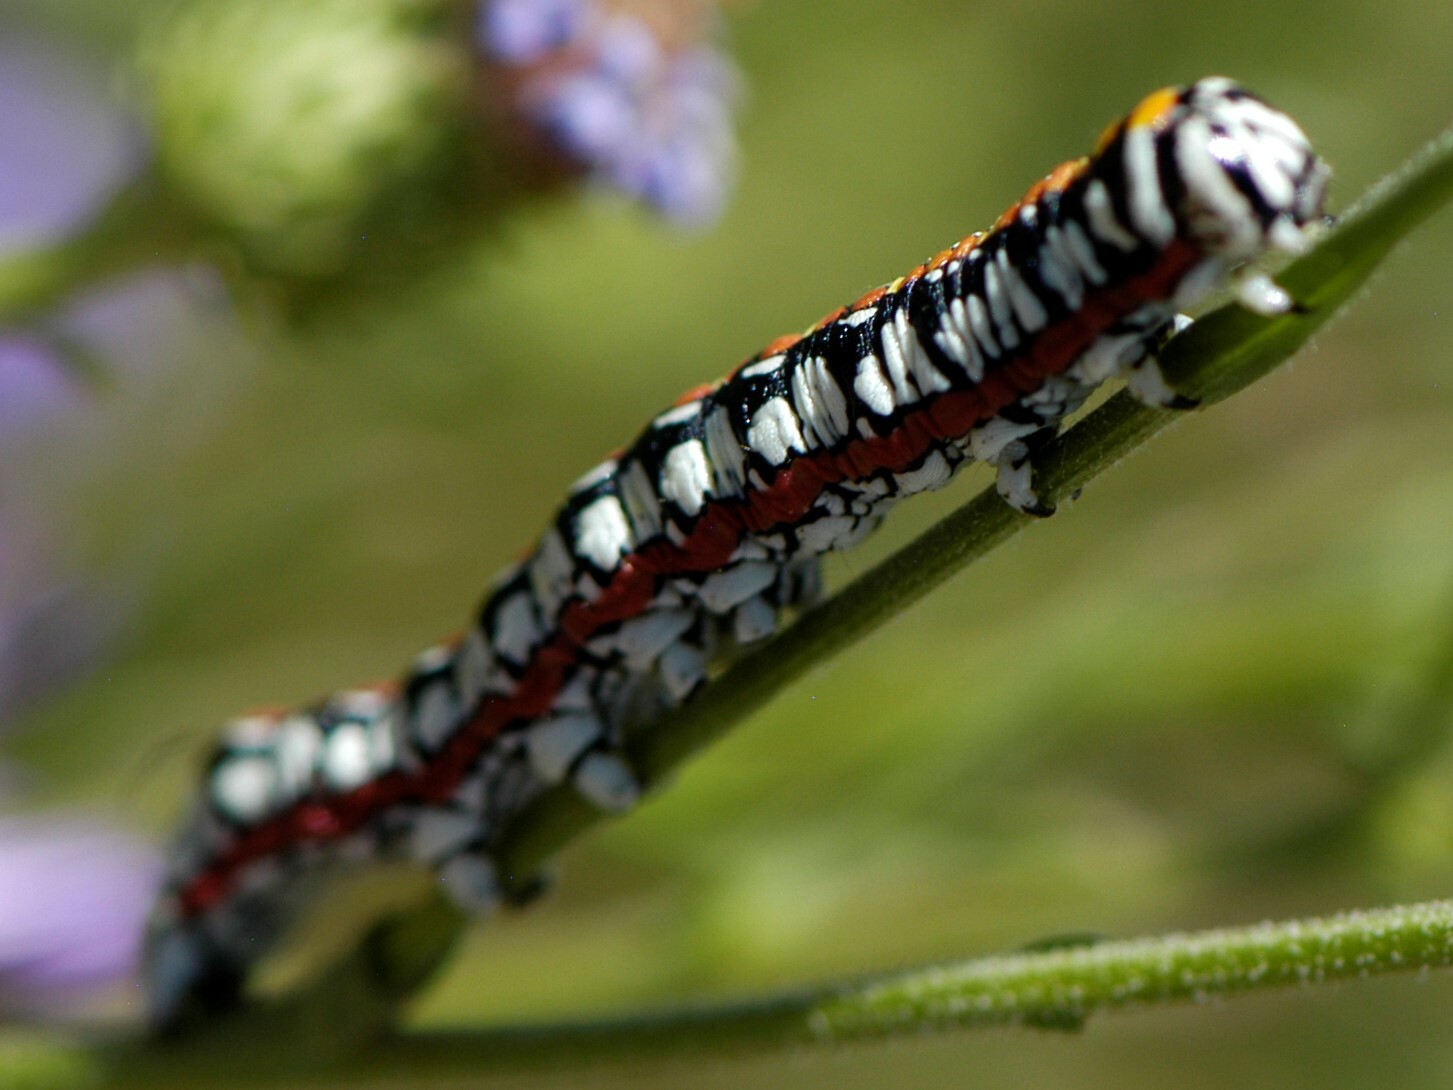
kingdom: Animalia
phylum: Arthropoda
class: Insecta
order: Lepidoptera
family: Noctuidae
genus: Cucullia
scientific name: Cucullia dorsalis
